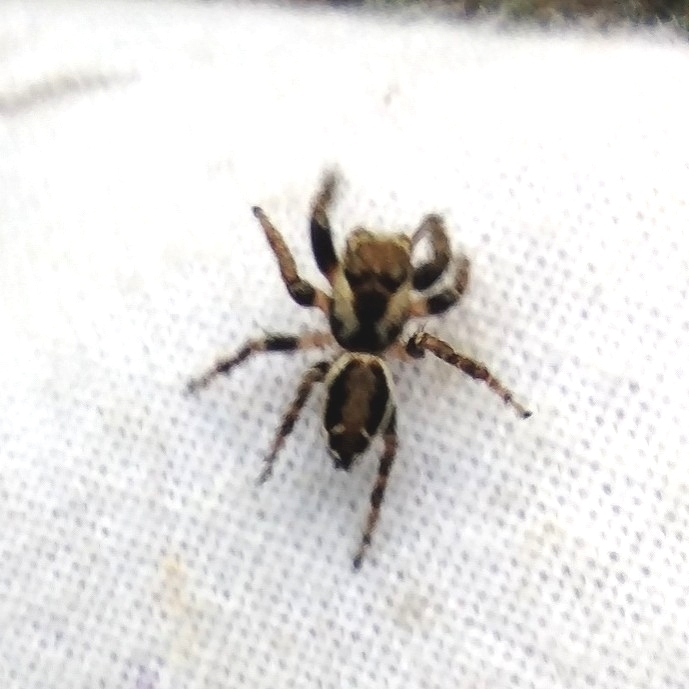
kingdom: Animalia
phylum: Arthropoda
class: Arachnida
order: Araneae
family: Salticidae
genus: Evarcha
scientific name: Evarcha falcata
